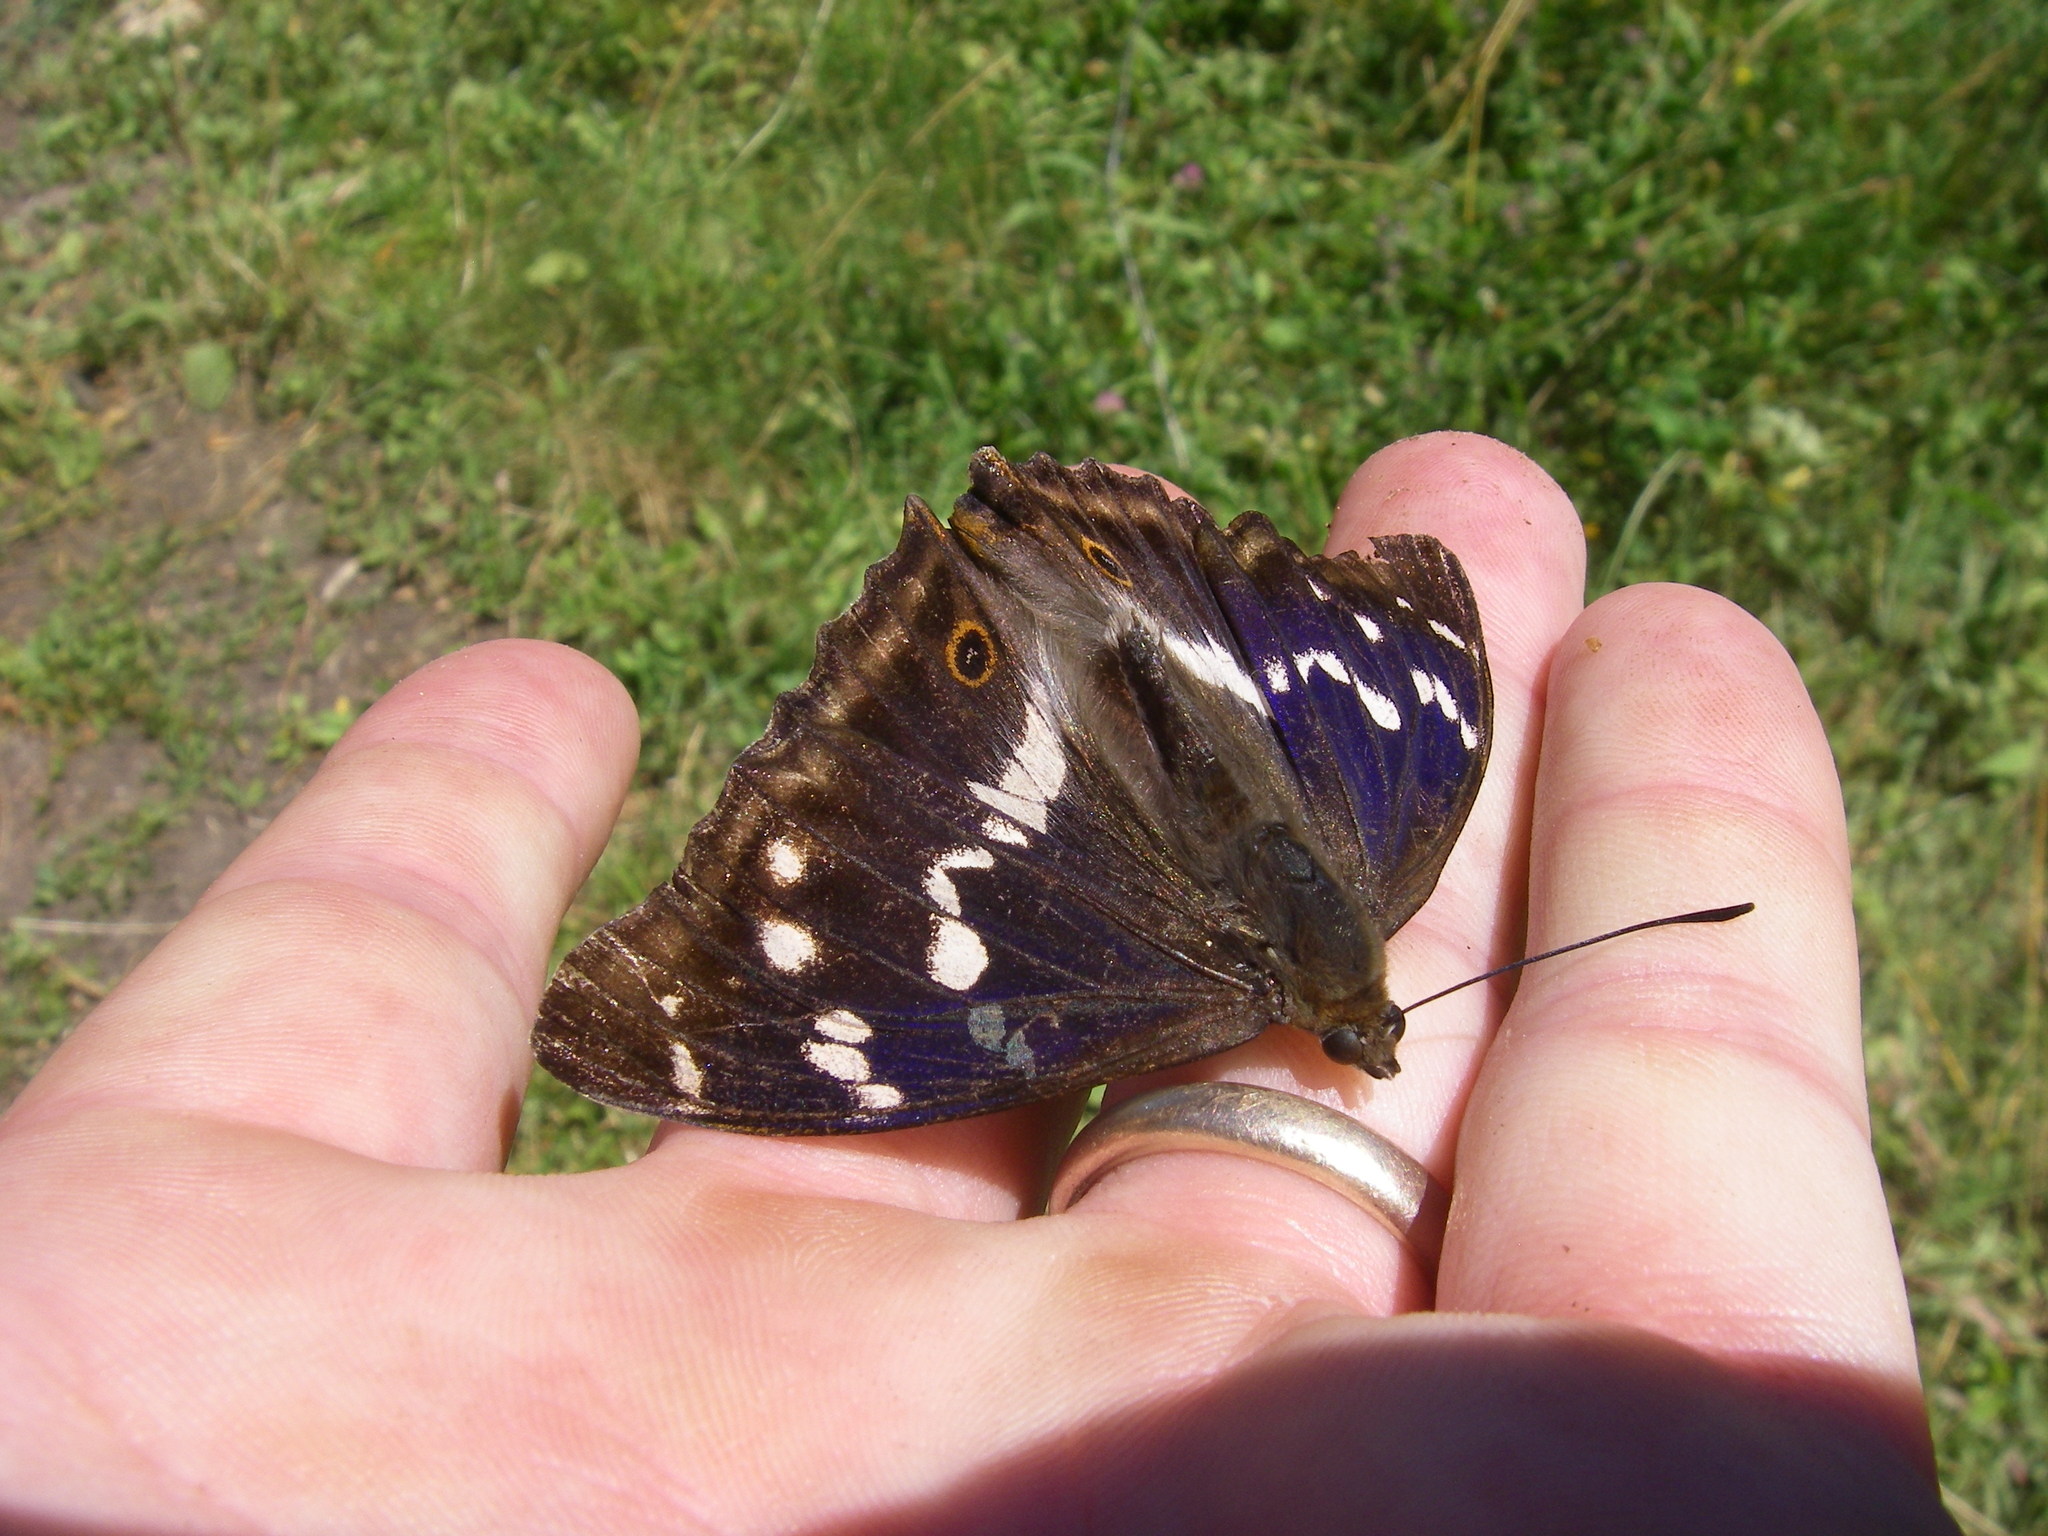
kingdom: Animalia
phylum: Arthropoda
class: Insecta
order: Lepidoptera
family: Nymphalidae
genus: Apatura
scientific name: Apatura iris
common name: Purple emperor
